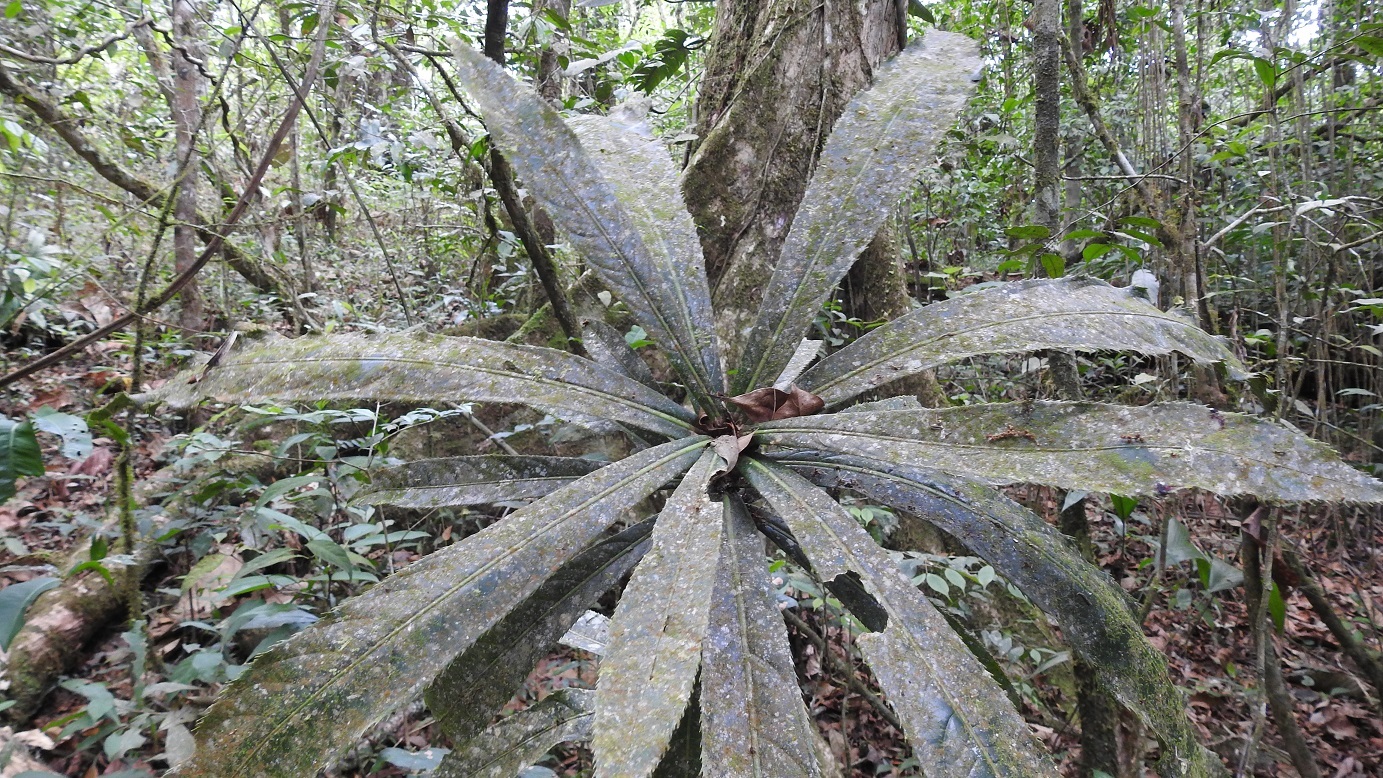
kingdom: Plantae
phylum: Tracheophyta
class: Magnoliopsida
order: Malpighiales
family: Ochnaceae
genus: Ouratea
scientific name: Ouratea theophrasta
